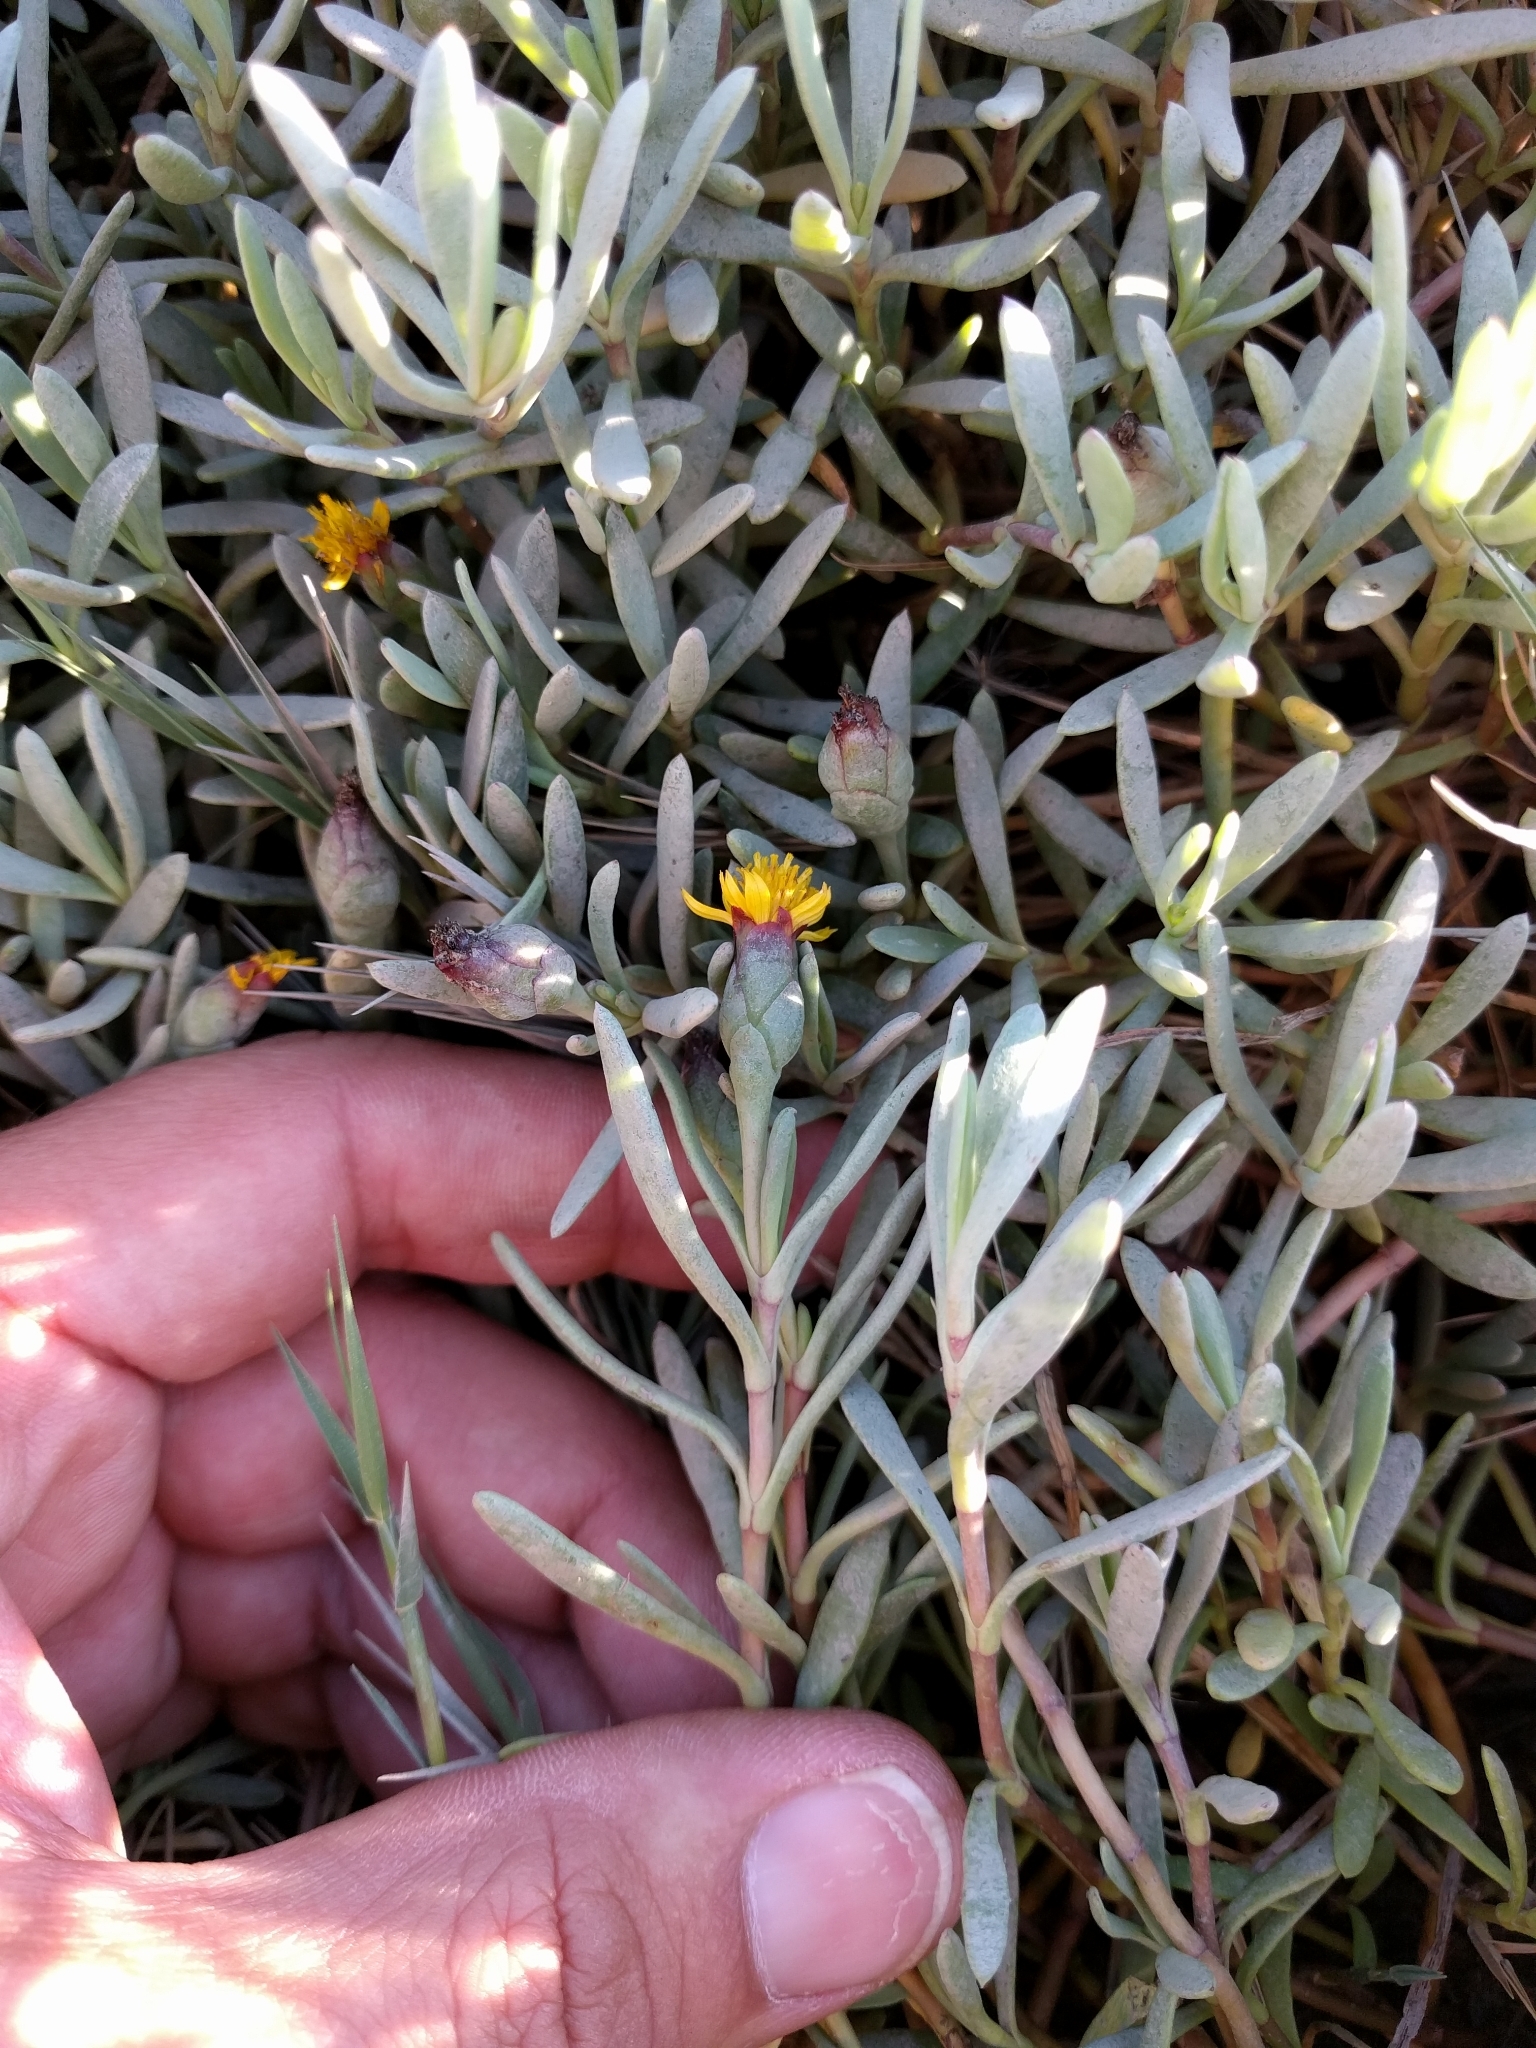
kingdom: Plantae
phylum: Tracheophyta
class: Magnoliopsida
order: Asterales
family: Asteraceae
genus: Jaumea
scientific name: Jaumea carnosa
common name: Fleshy jaumea
